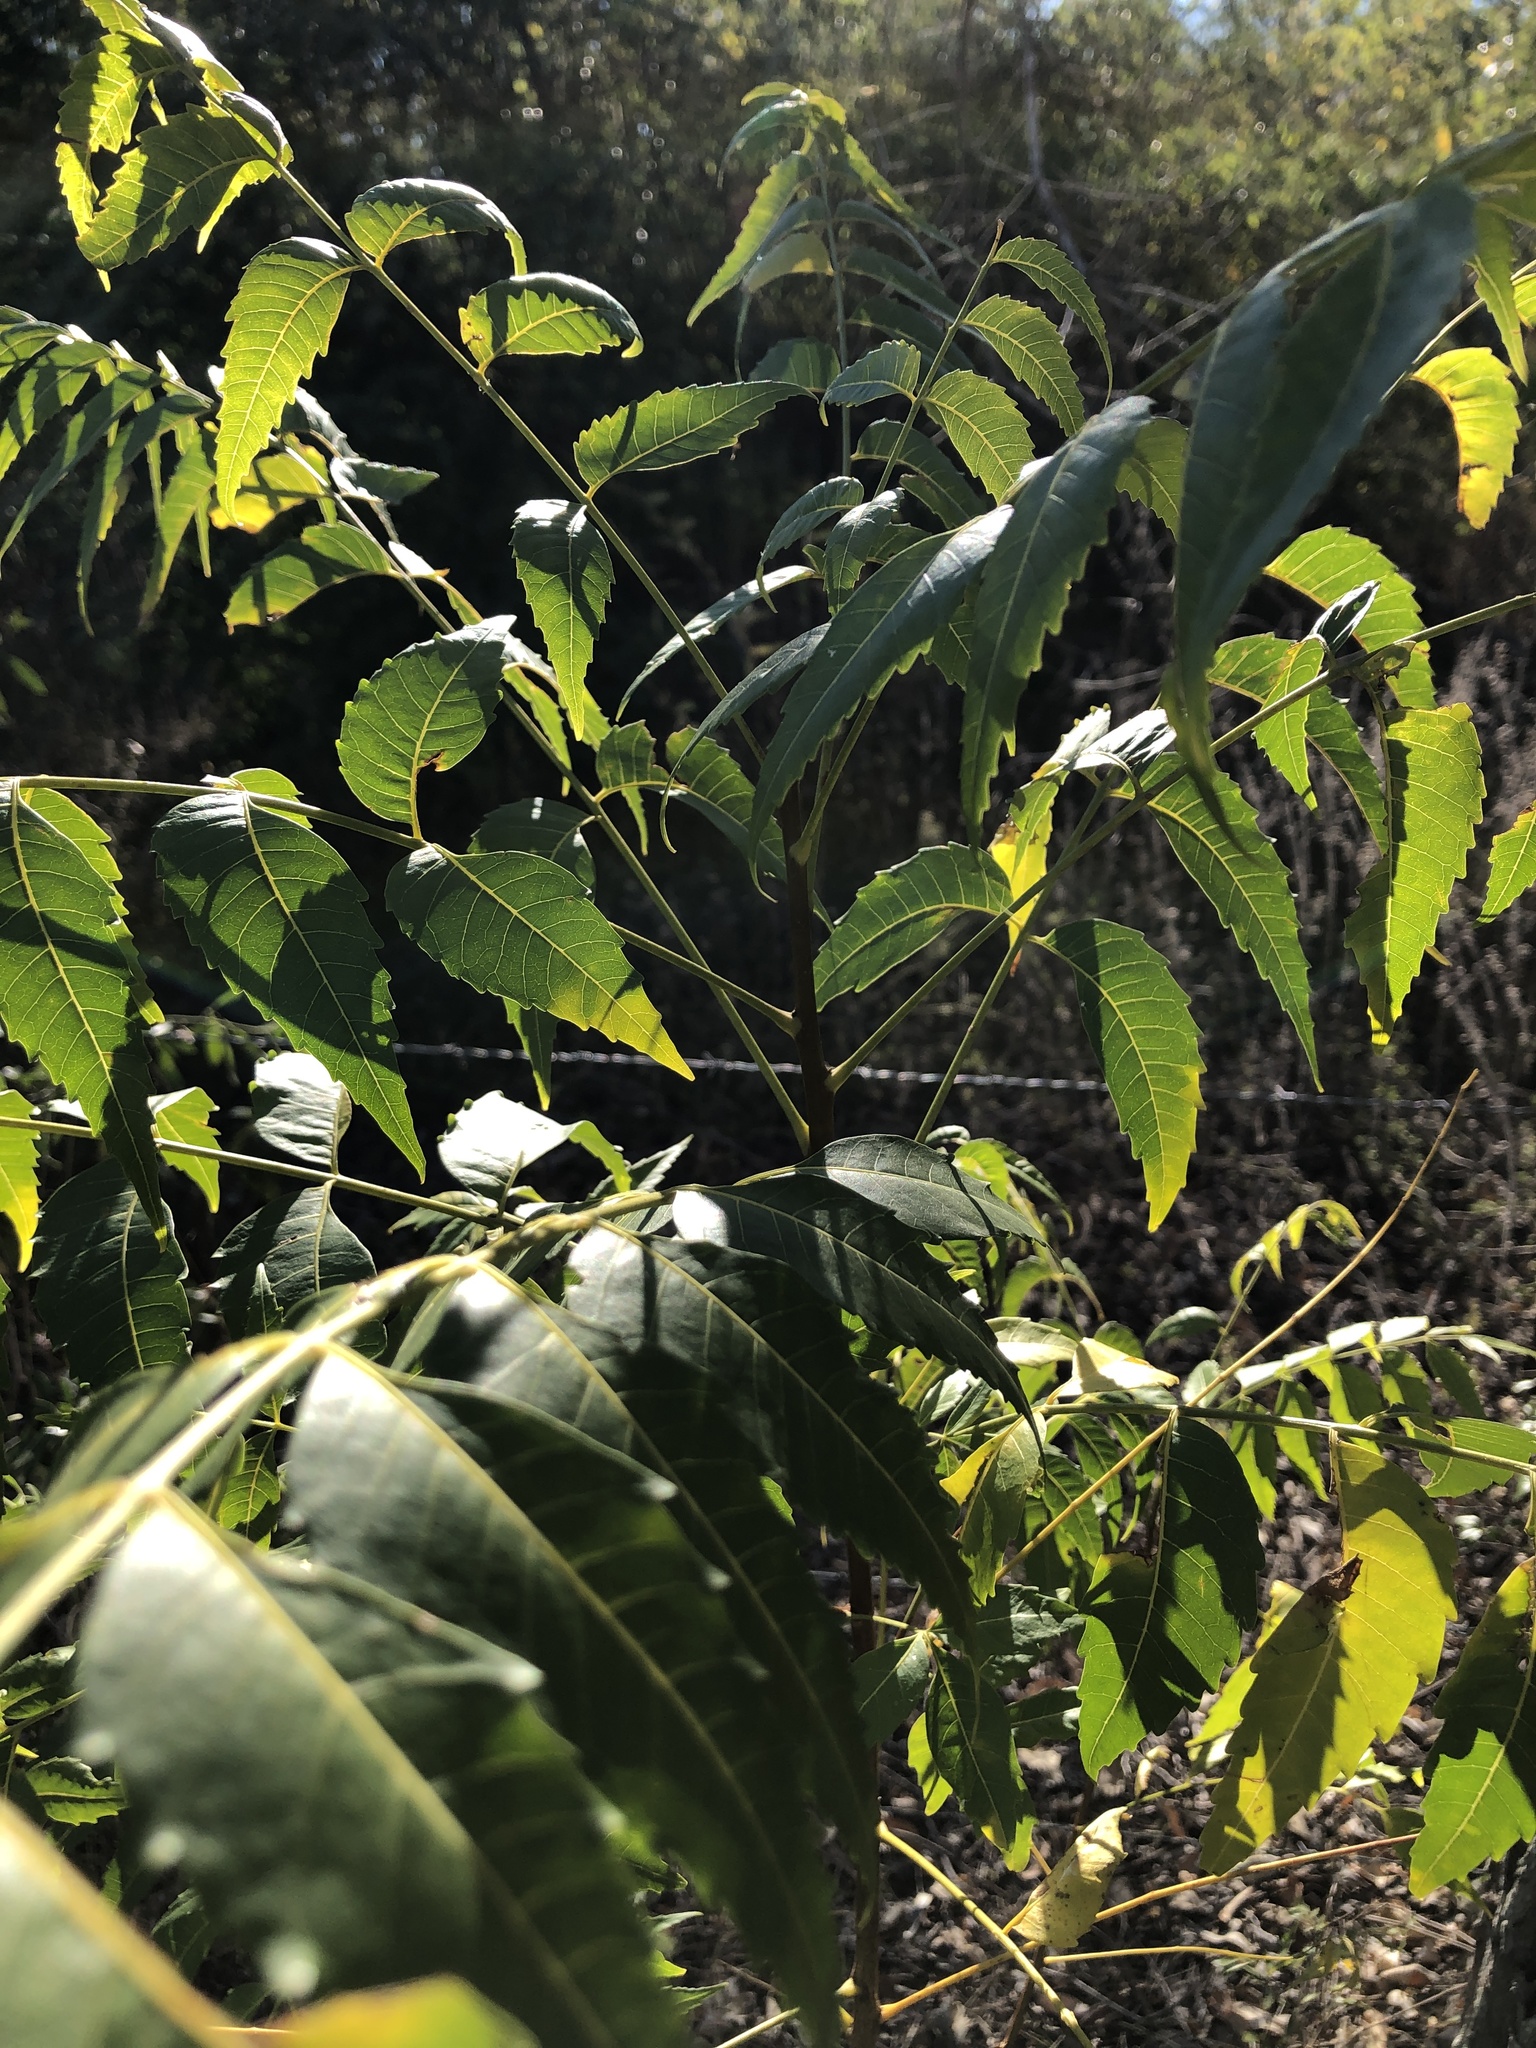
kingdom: Plantae
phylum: Tracheophyta
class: Magnoliopsida
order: Sapindales
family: Meliaceae
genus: Azadirachta
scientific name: Azadirachta indica
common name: Neem
